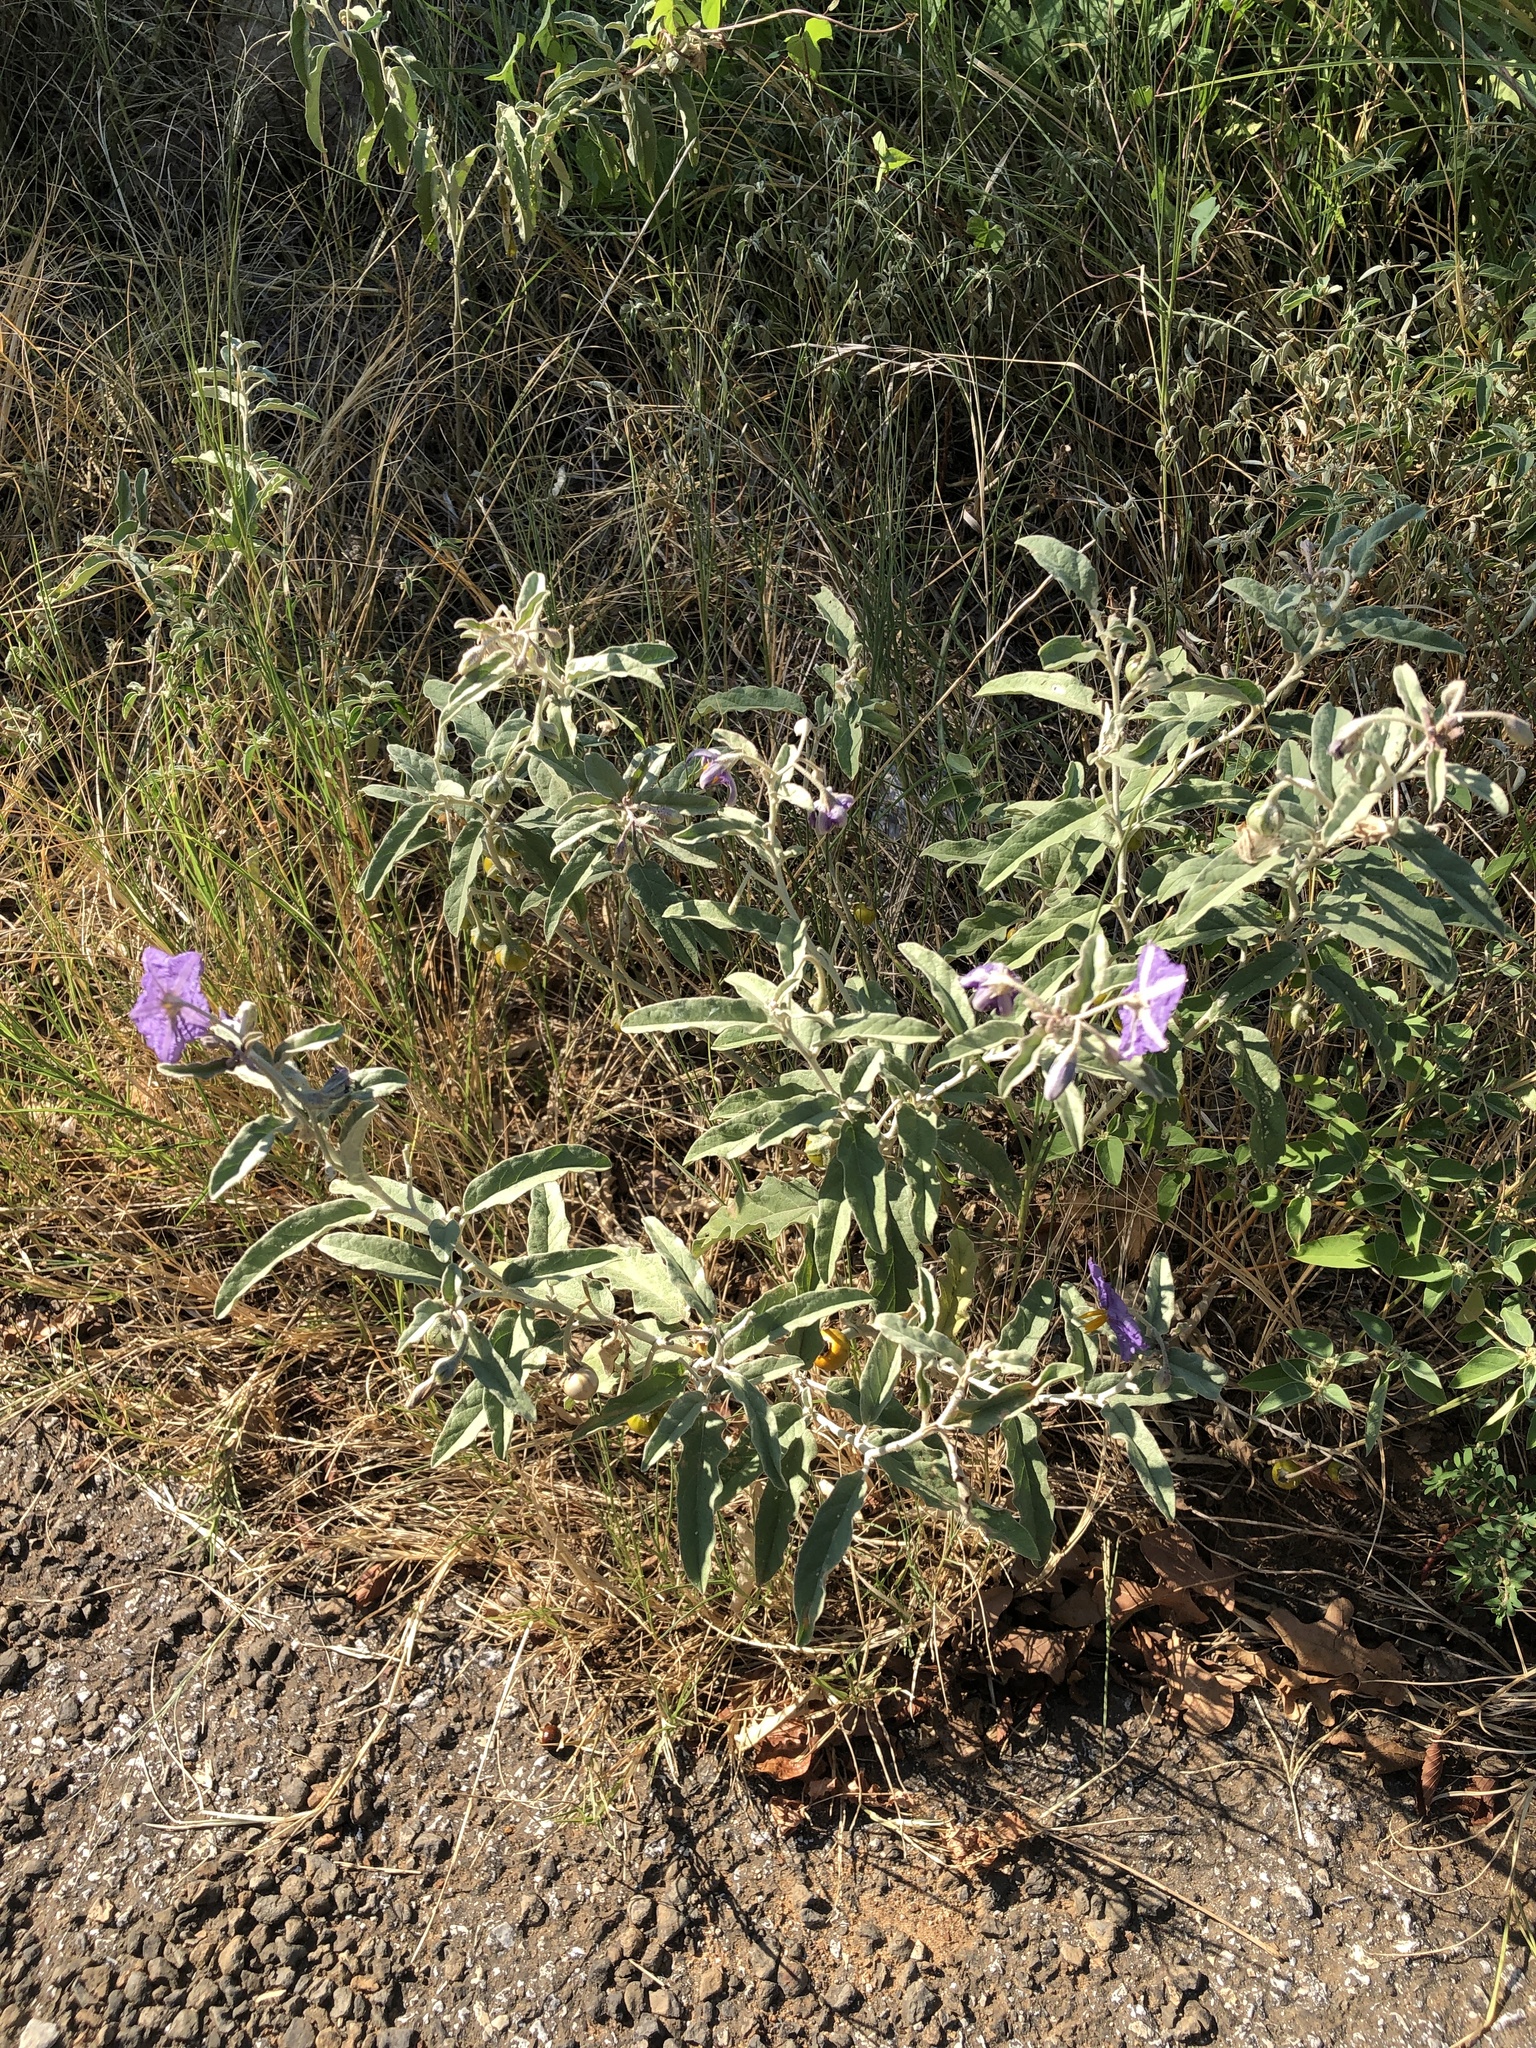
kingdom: Plantae
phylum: Tracheophyta
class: Magnoliopsida
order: Solanales
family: Solanaceae
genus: Solanum
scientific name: Solanum elaeagnifolium
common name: Silverleaf nightshade
